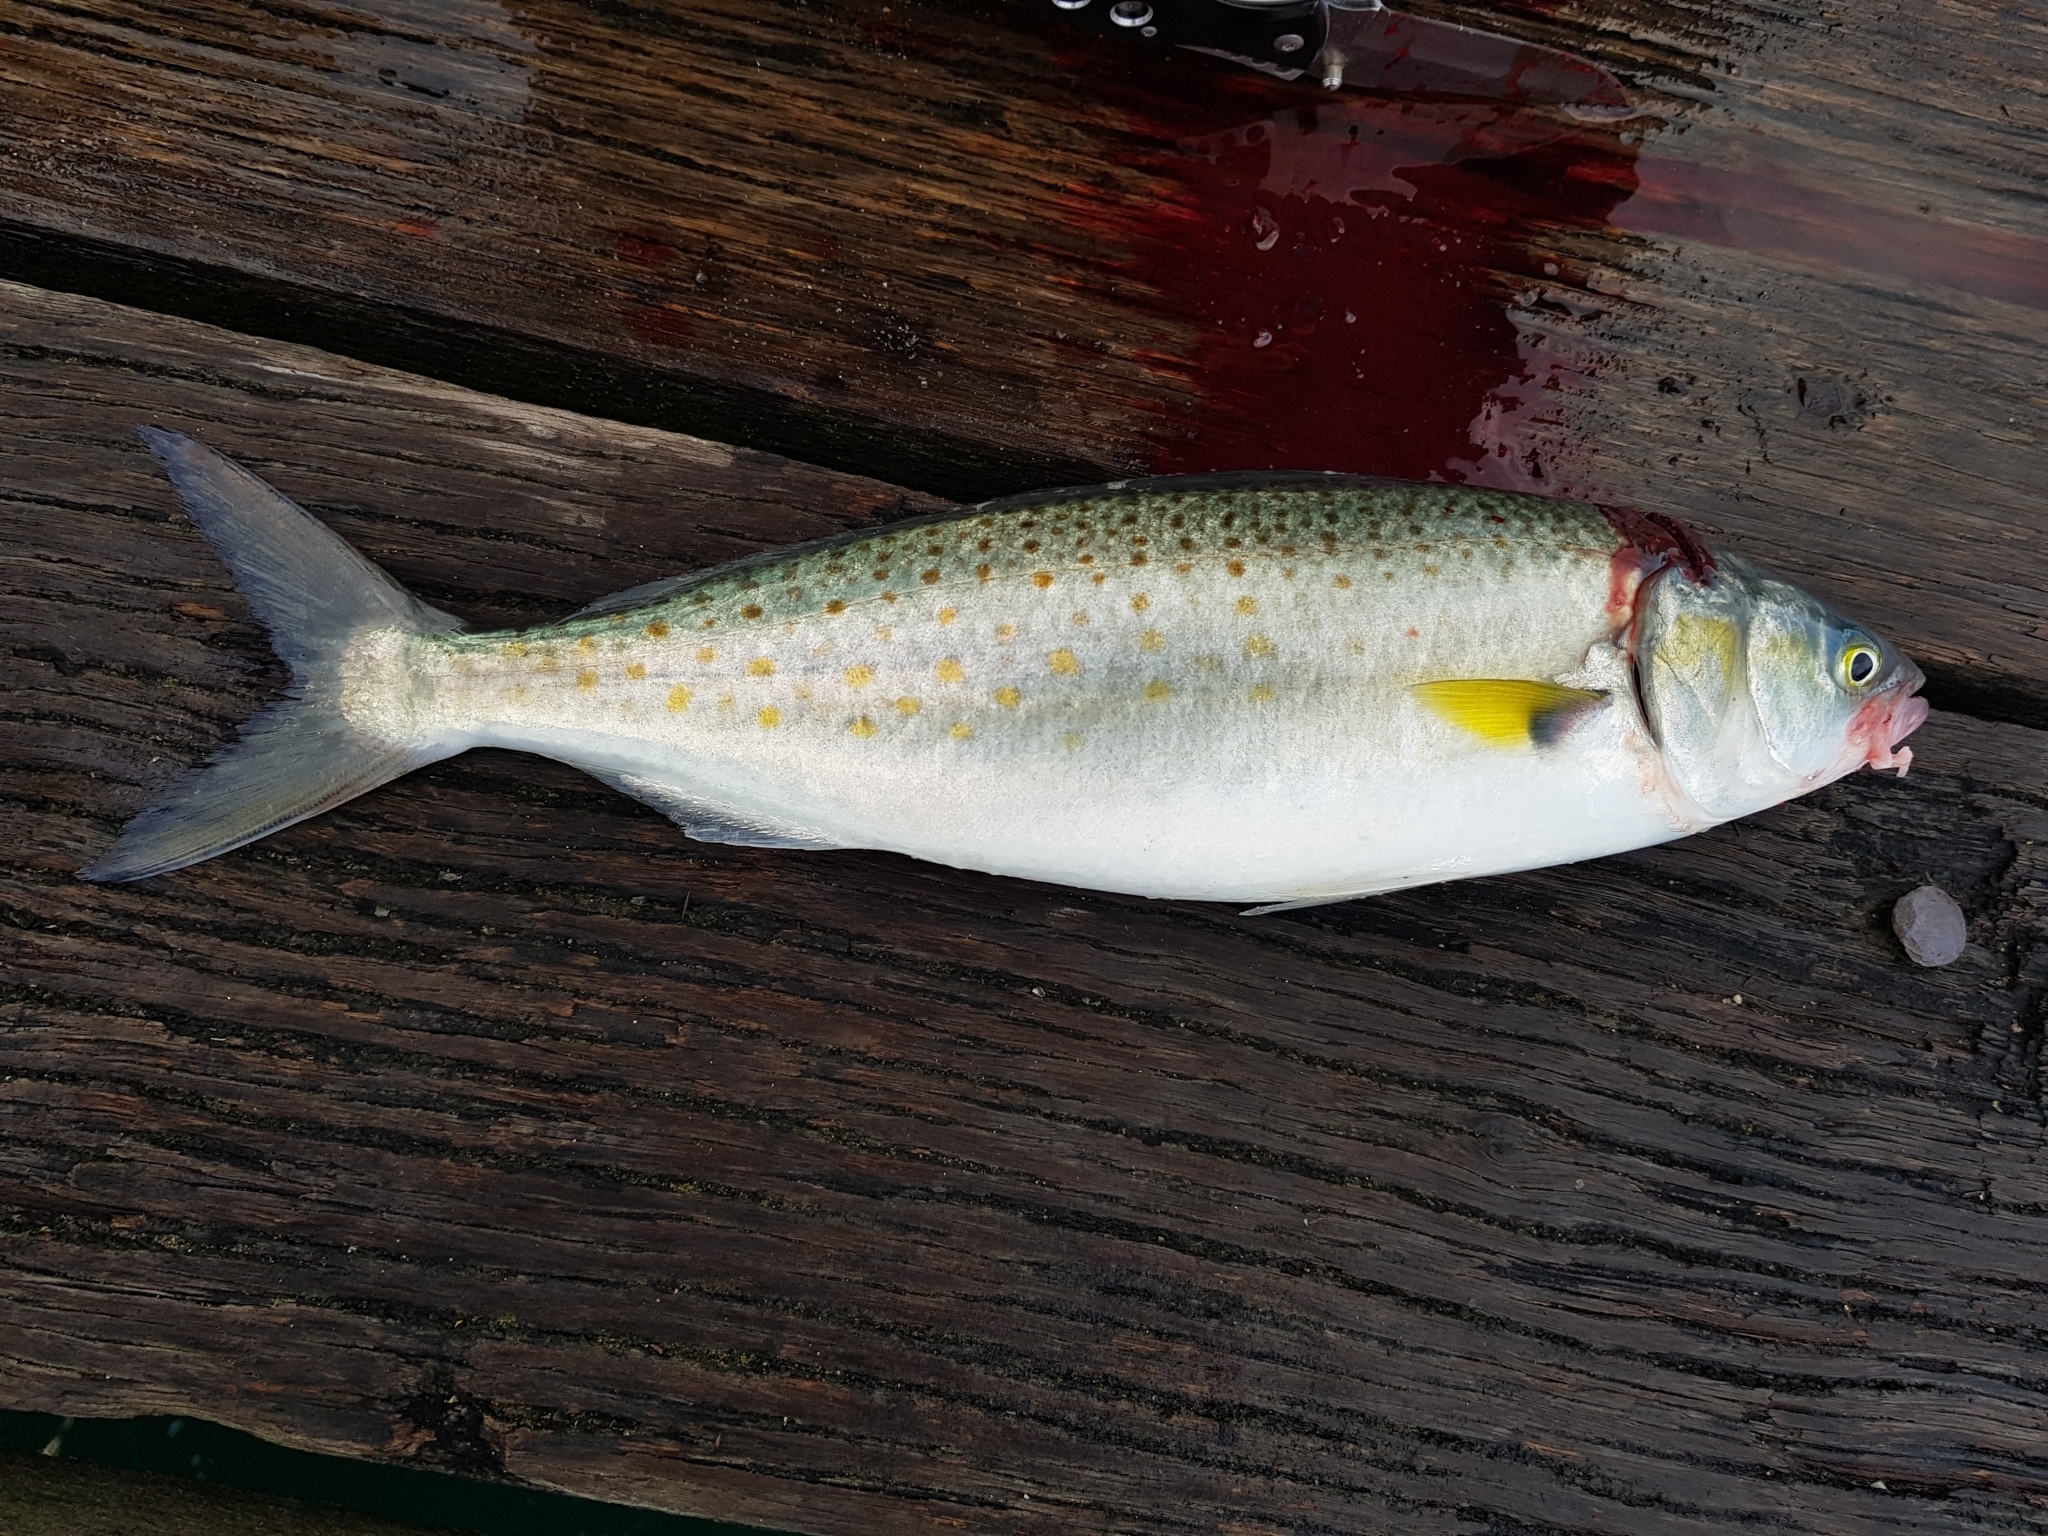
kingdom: Animalia
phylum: Chordata
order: Perciformes
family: Arripidae
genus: Arripis
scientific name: Arripis trutta
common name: Kahawai
